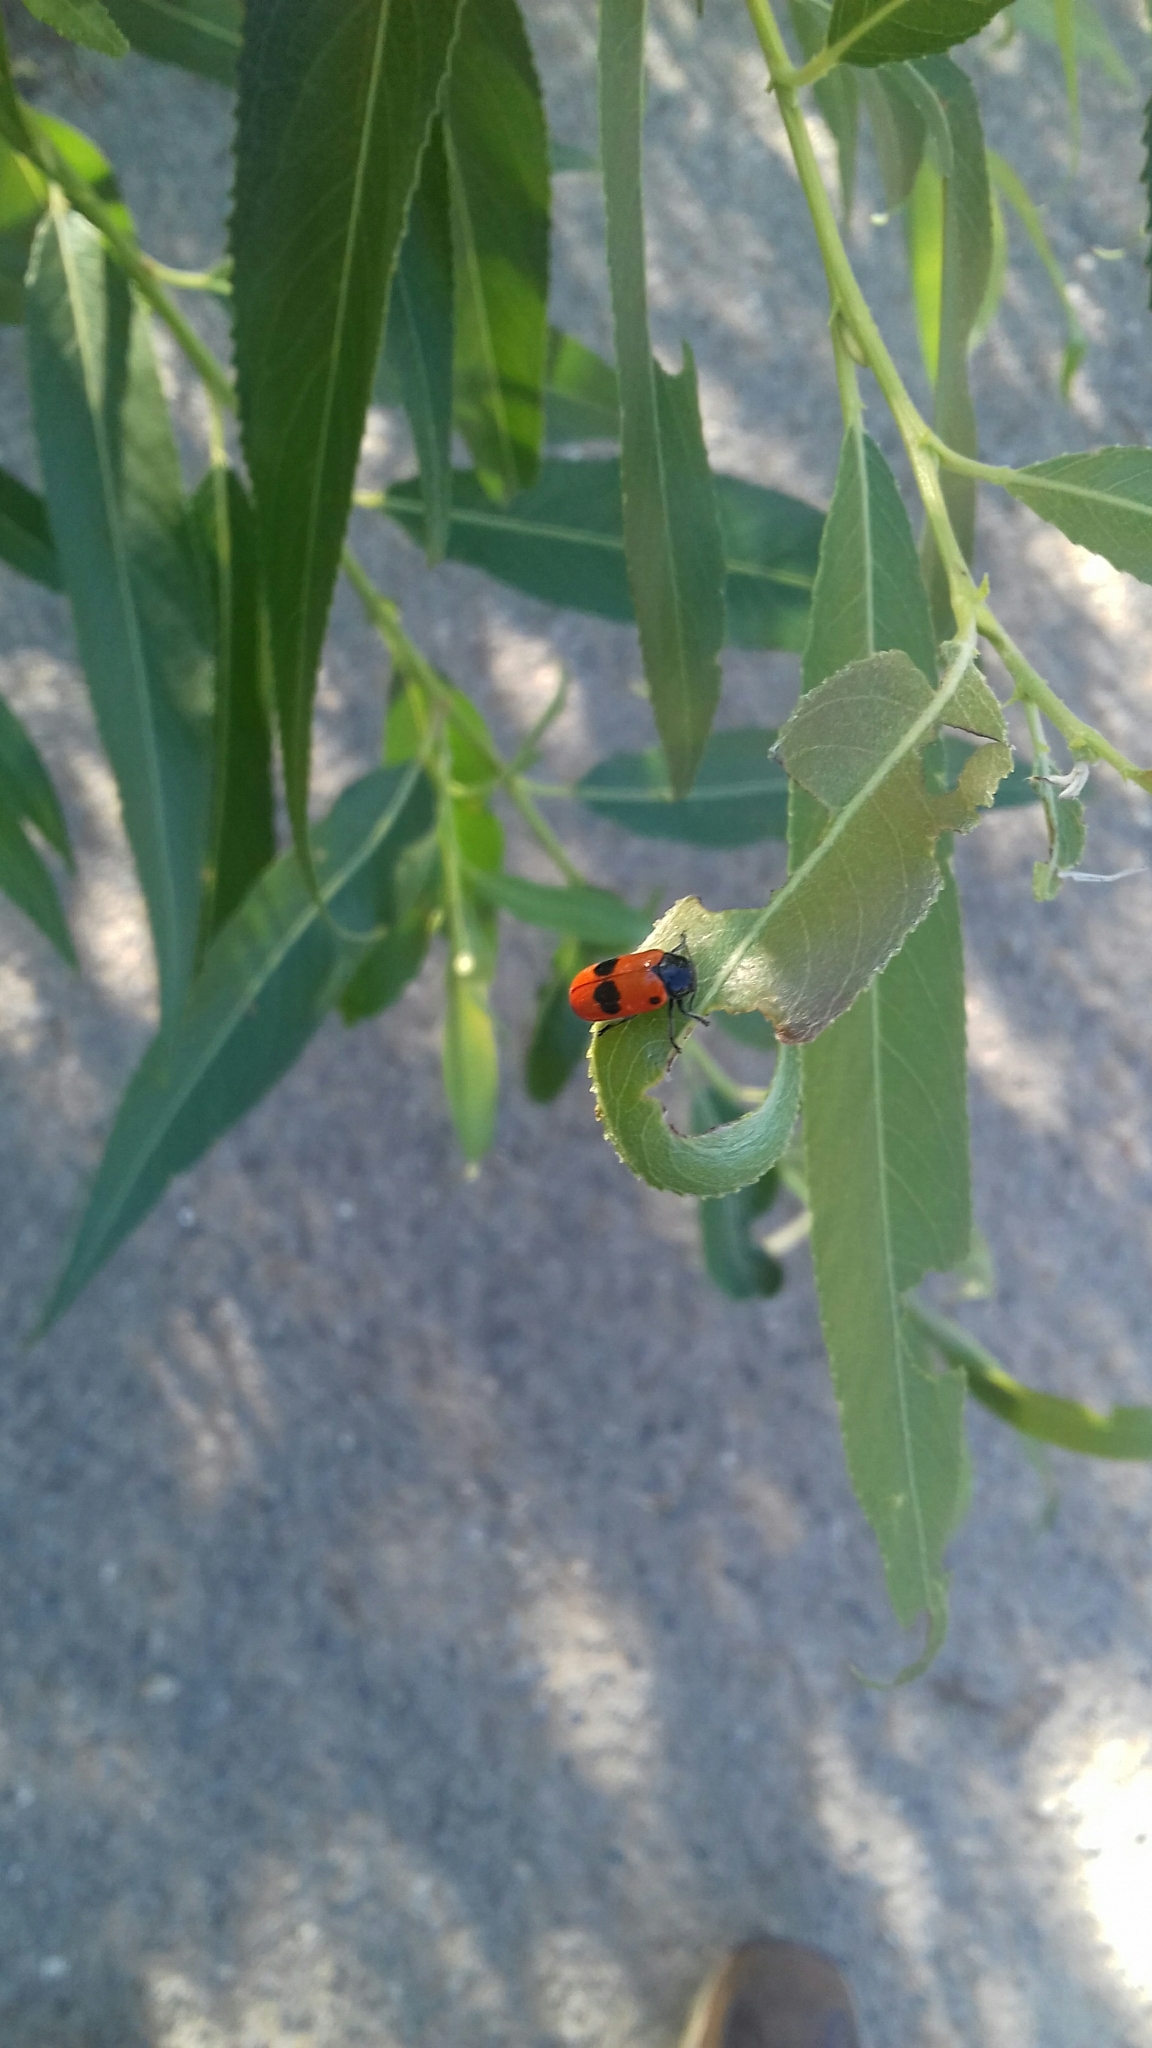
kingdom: Animalia
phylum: Arthropoda
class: Insecta
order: Coleoptera
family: Chrysomelidae
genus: Clytra
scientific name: Clytra laeviuscula
